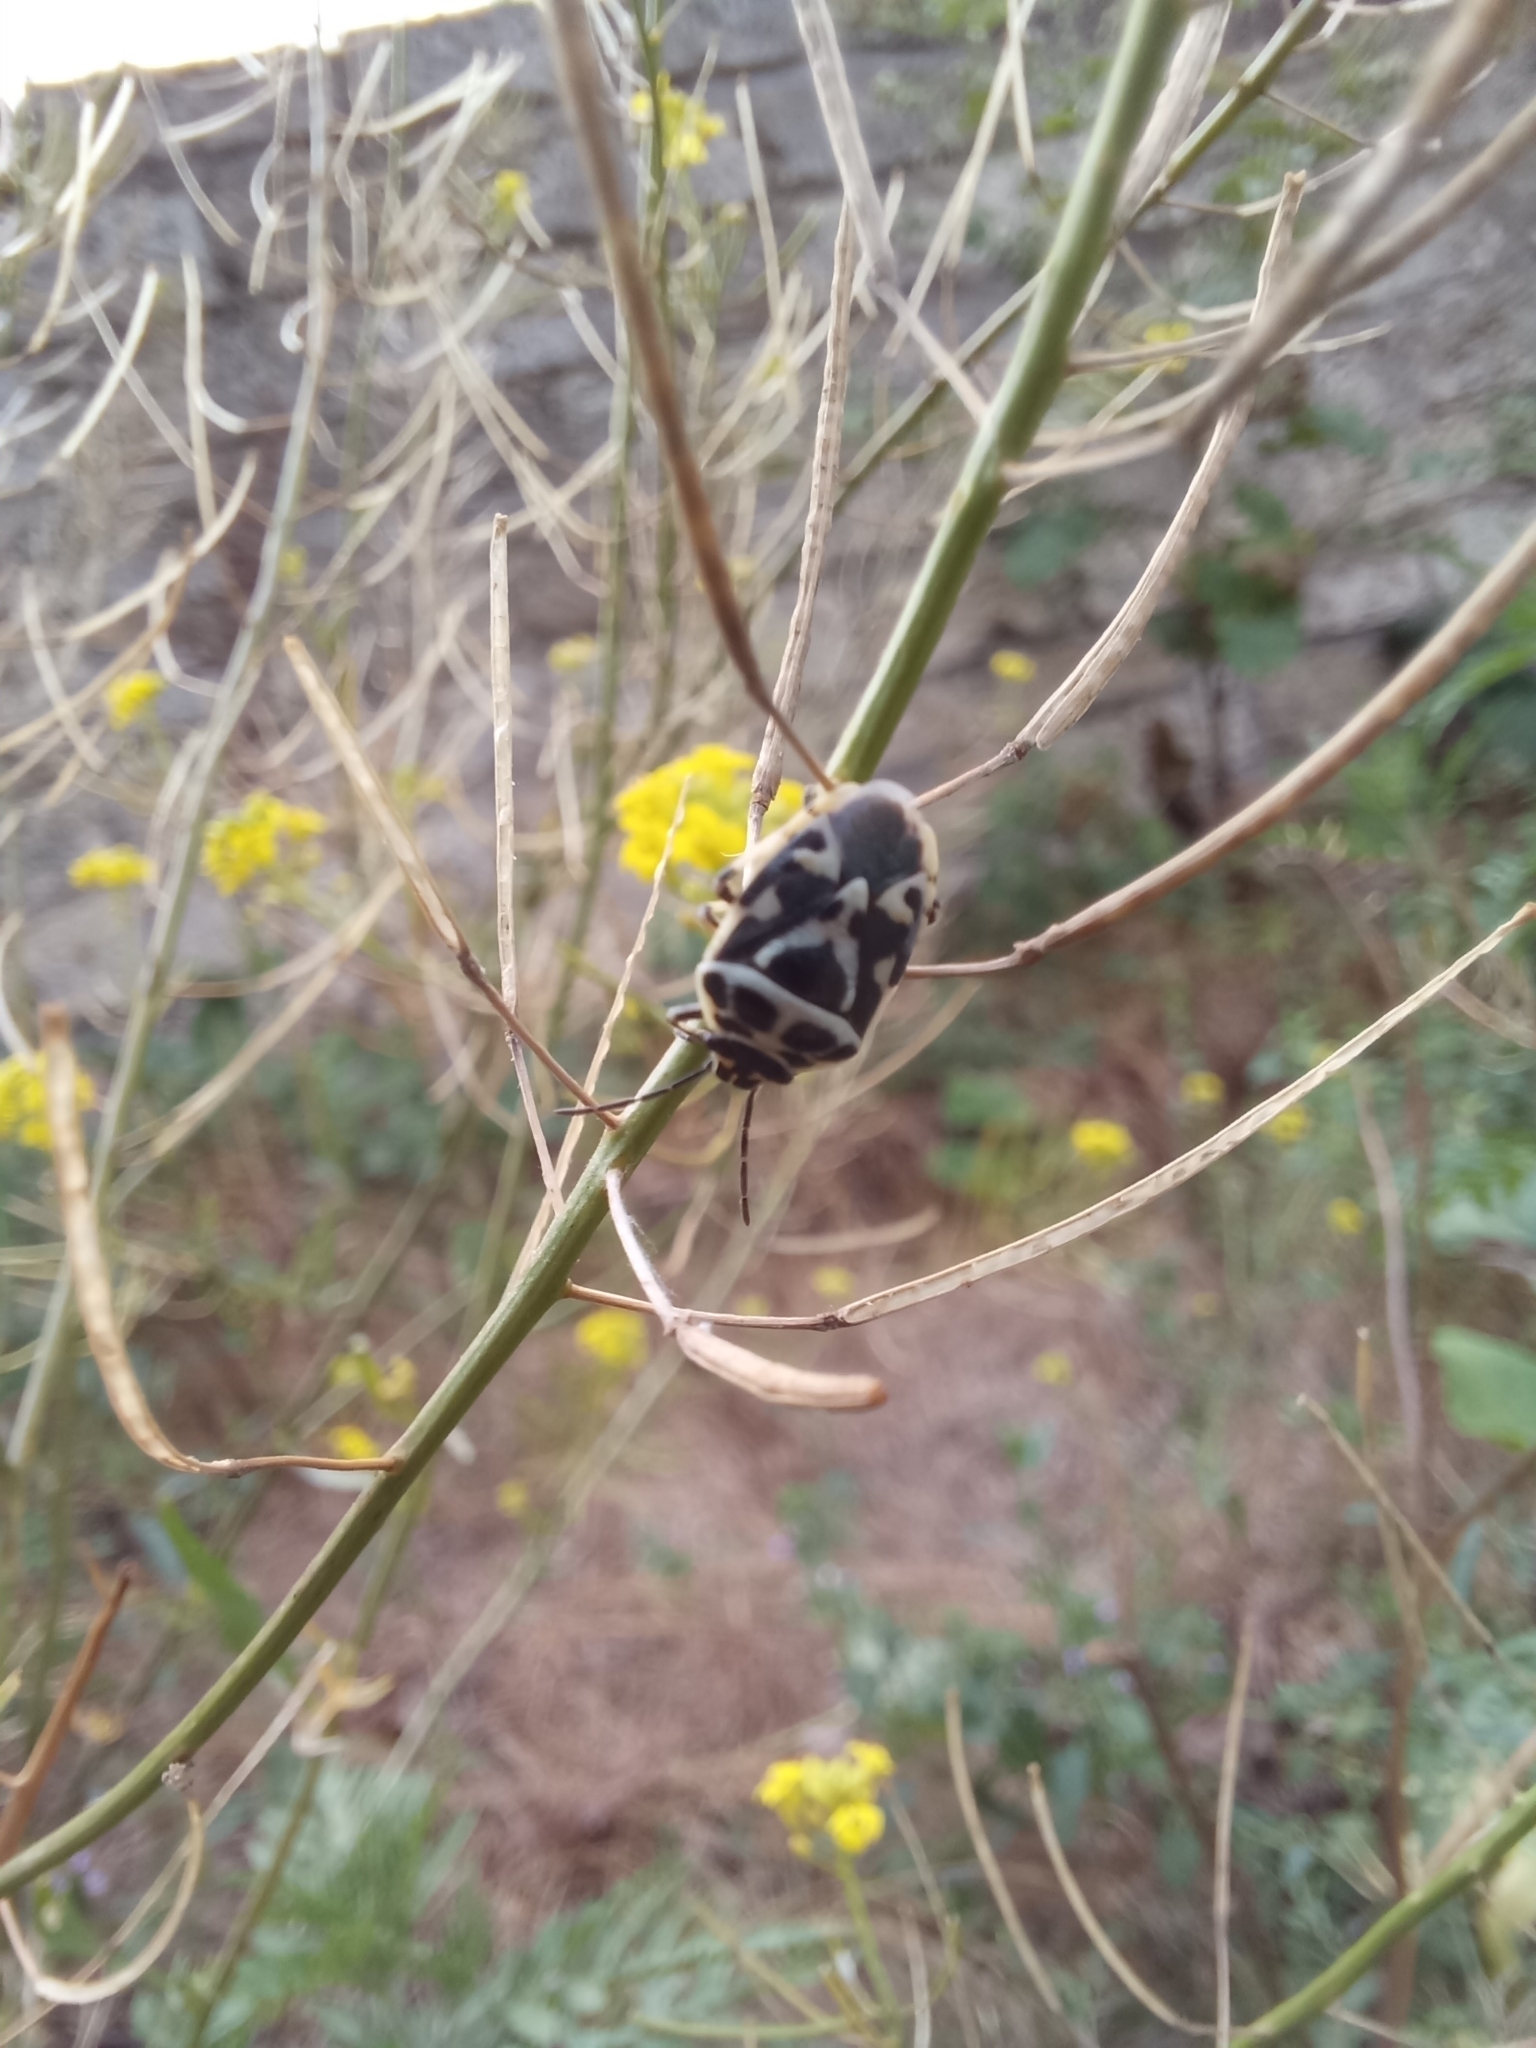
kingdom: Animalia
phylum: Arthropoda
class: Insecta
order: Hemiptera
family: Pentatomidae
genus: Eurydema
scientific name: Eurydema ornata
